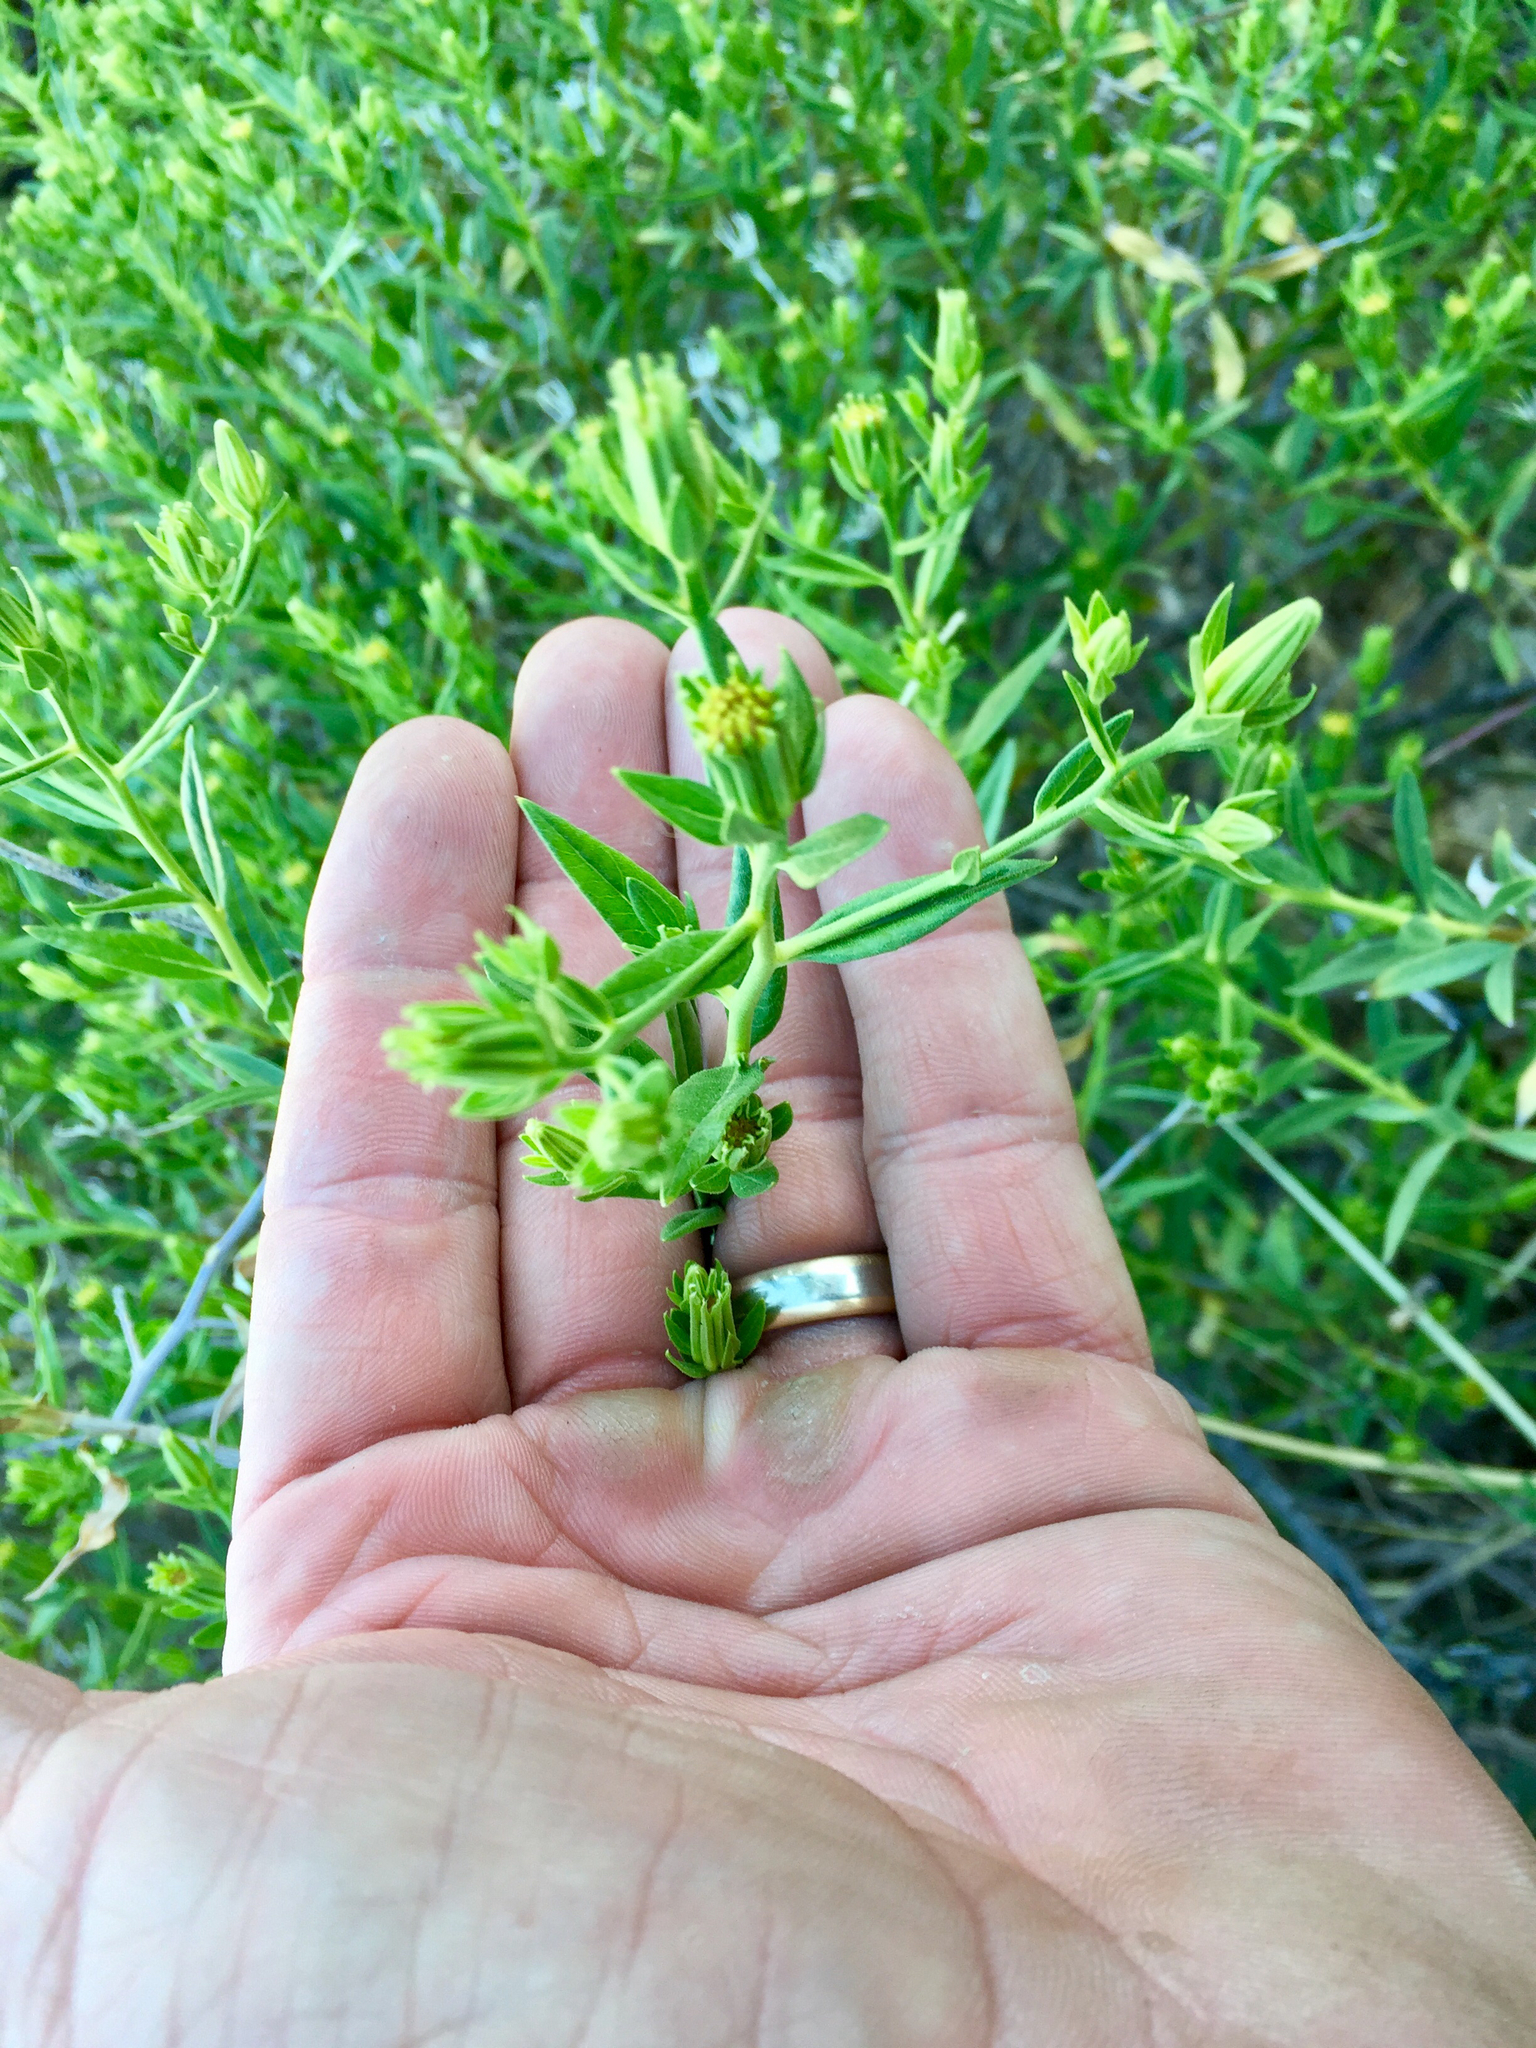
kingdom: Plantae
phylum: Tracheophyta
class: Magnoliopsida
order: Asterales
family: Asteraceae
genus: Trixis
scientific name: Trixis californica
